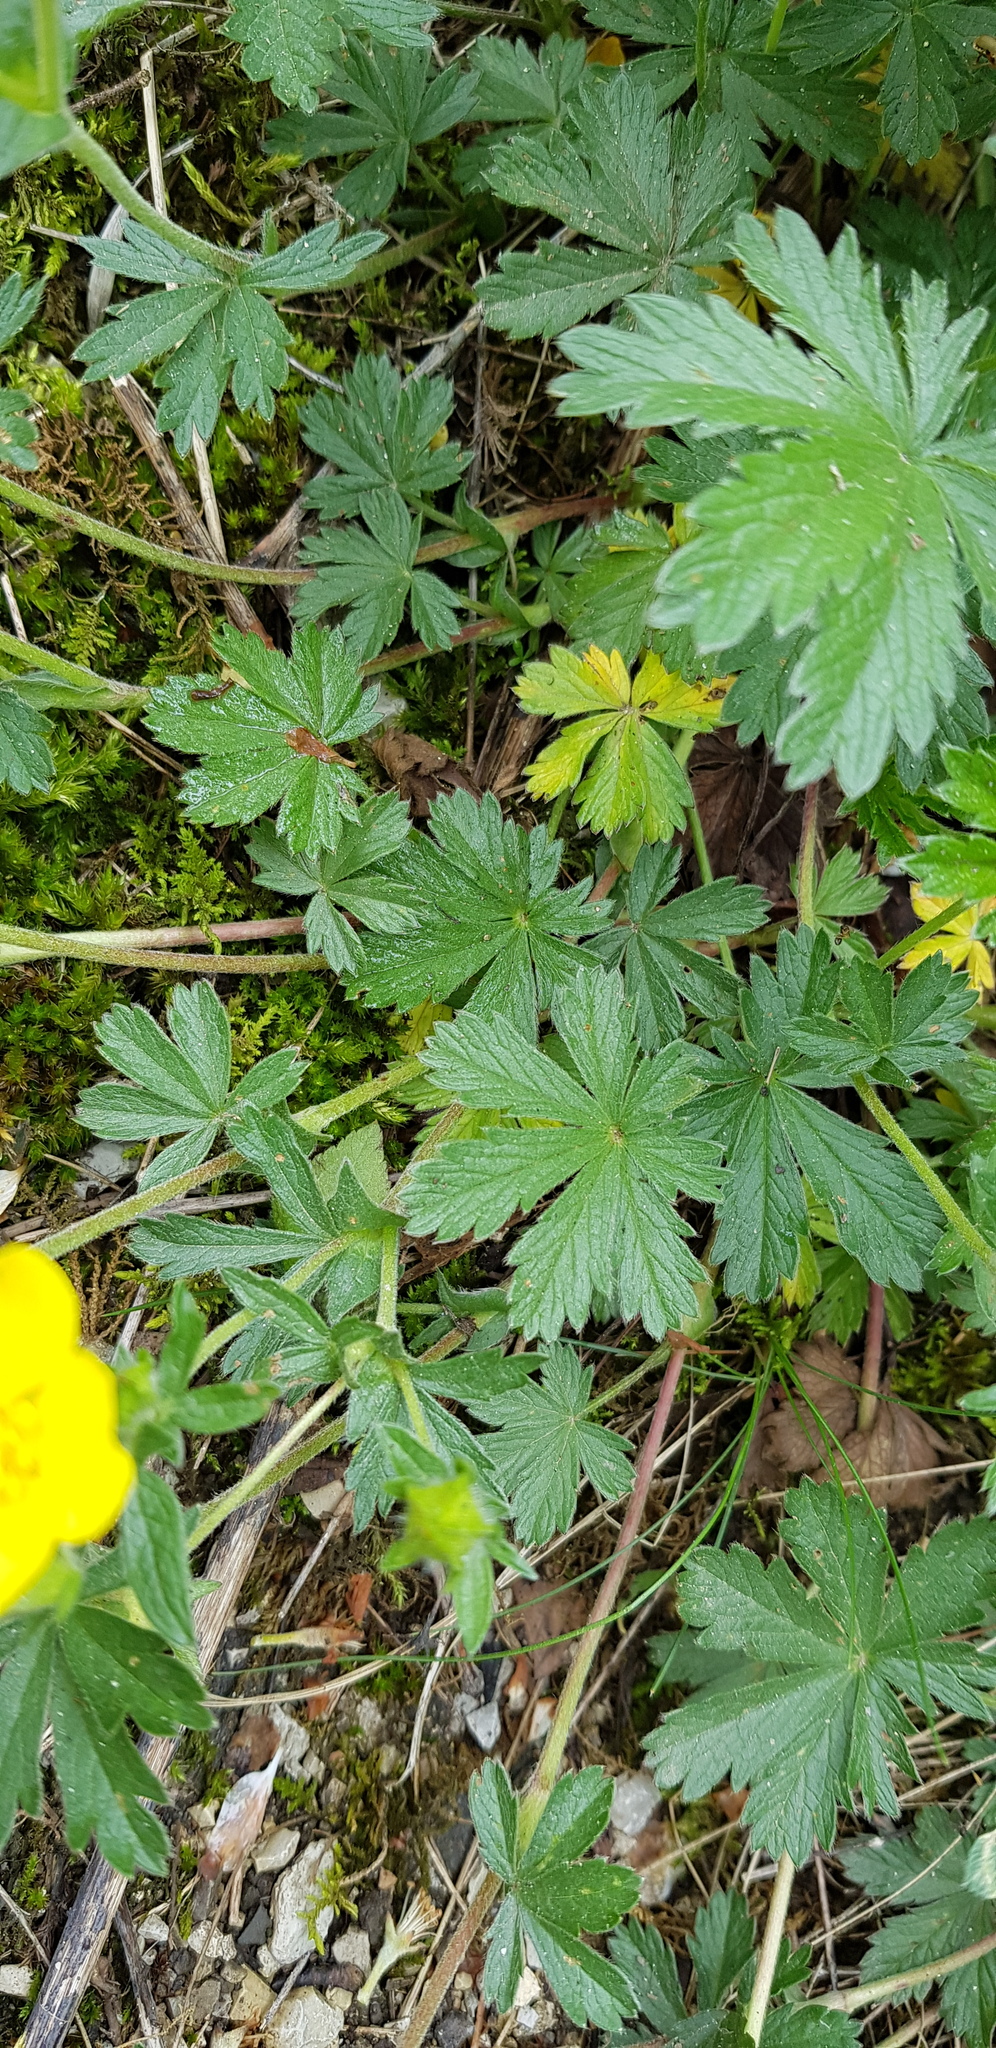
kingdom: Plantae
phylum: Tracheophyta
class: Magnoliopsida
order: Rosales
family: Rosaceae
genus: Potentilla
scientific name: Potentilla thuringiaca
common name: European cinquefoil
